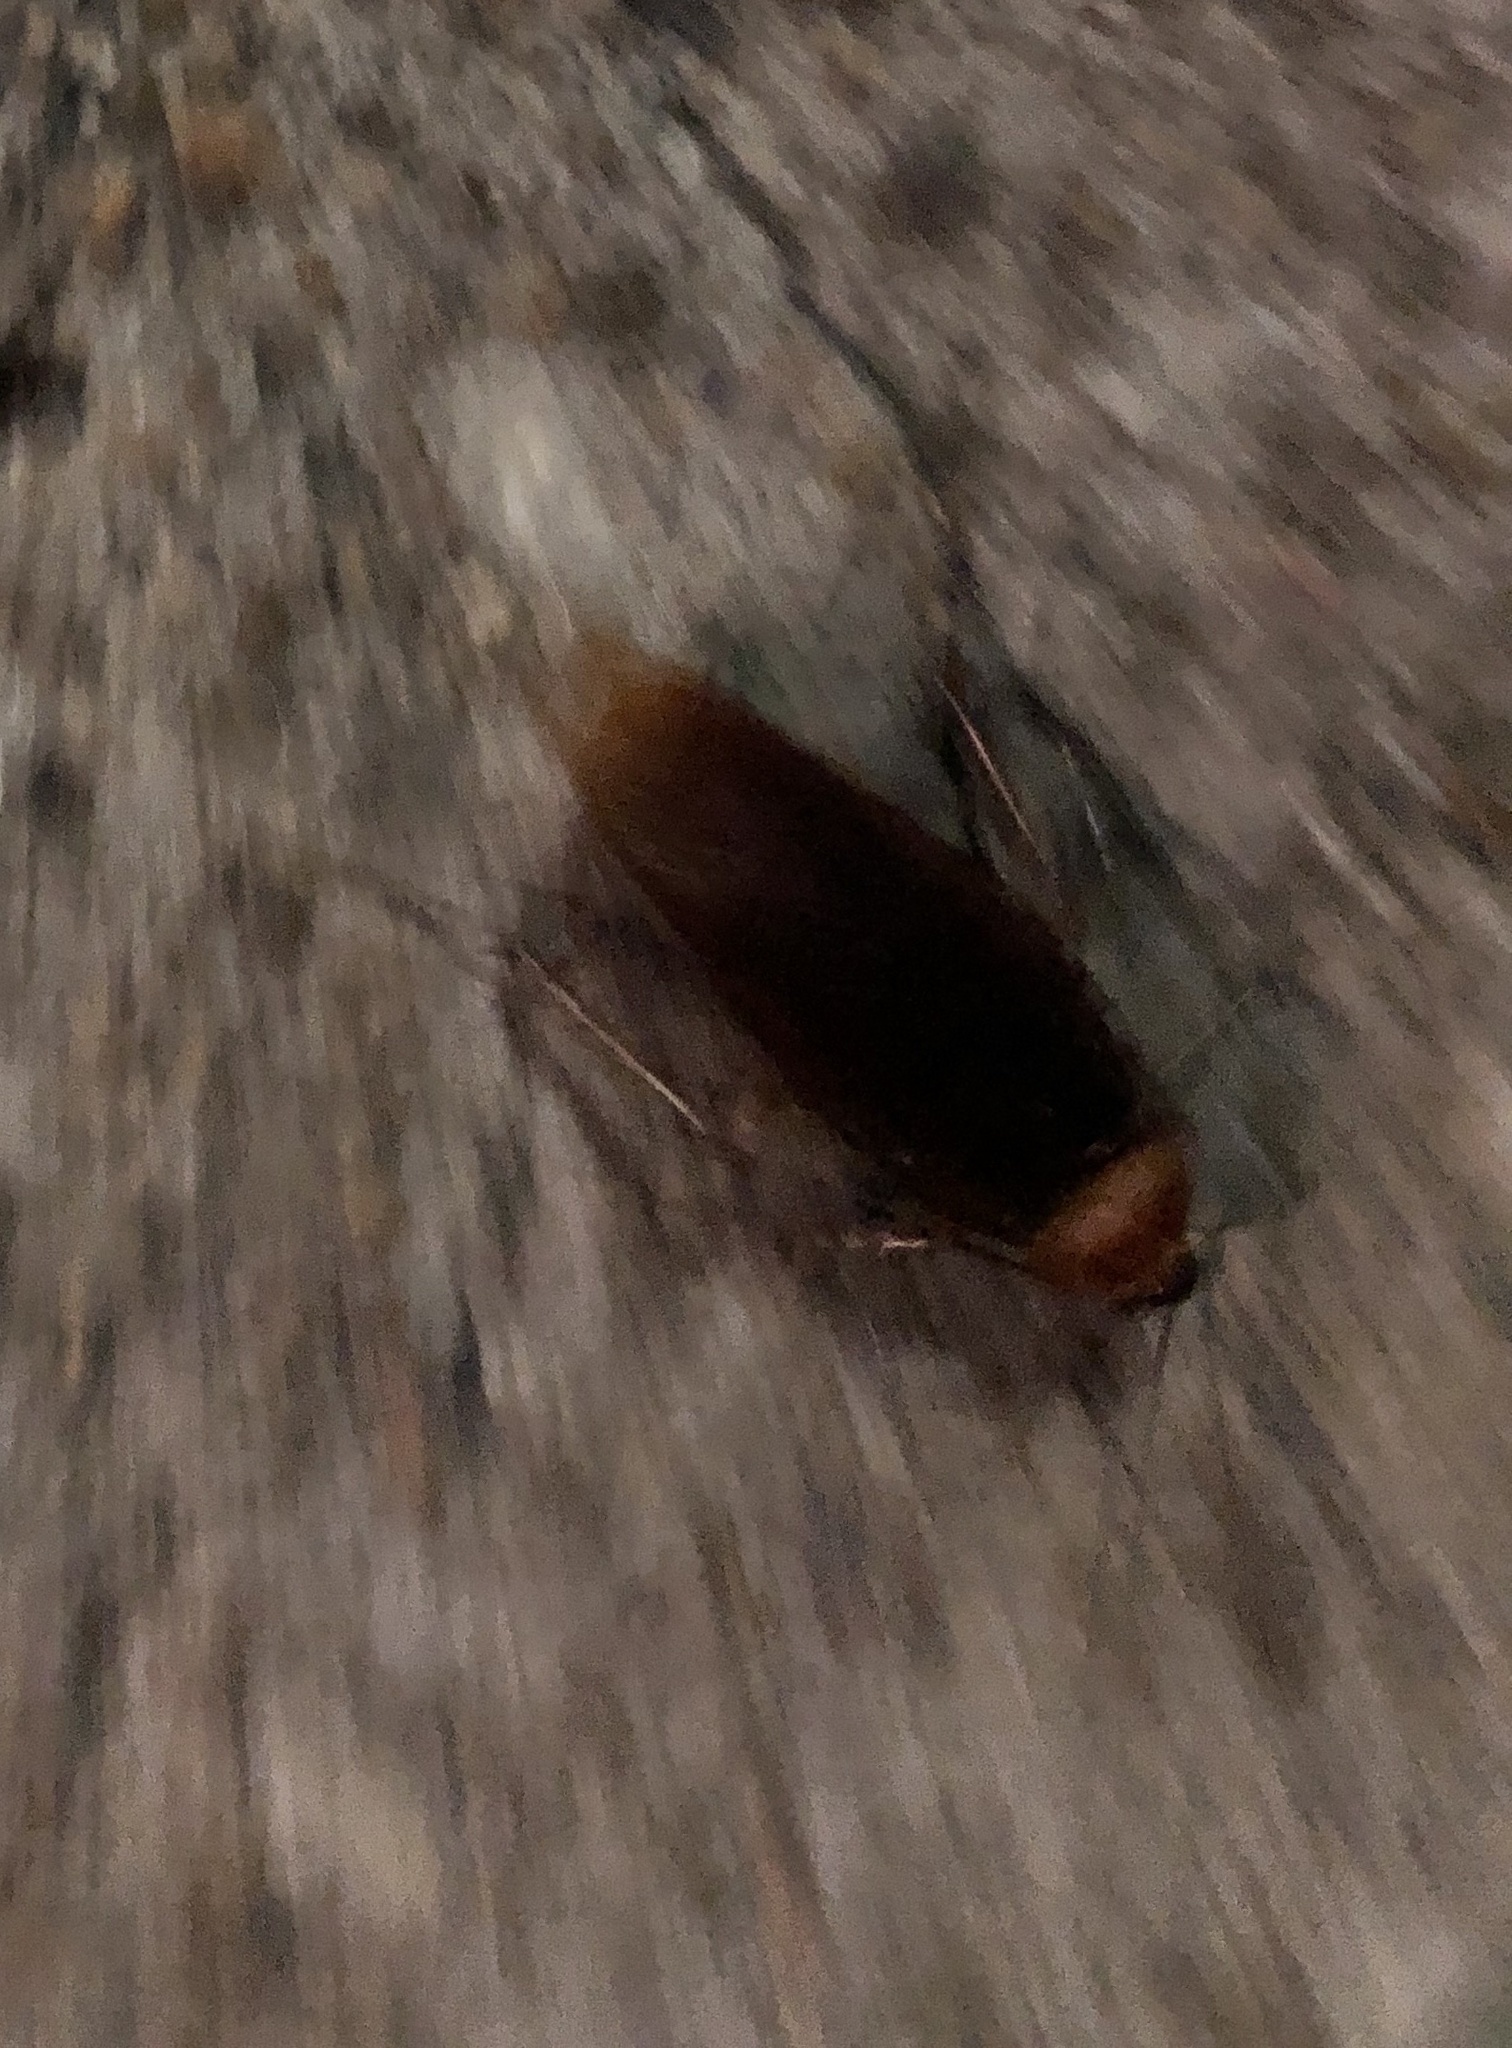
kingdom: Animalia
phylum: Arthropoda
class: Insecta
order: Blattodea
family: Blattidae
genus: Periplaneta
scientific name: Periplaneta americana
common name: American cockroach
